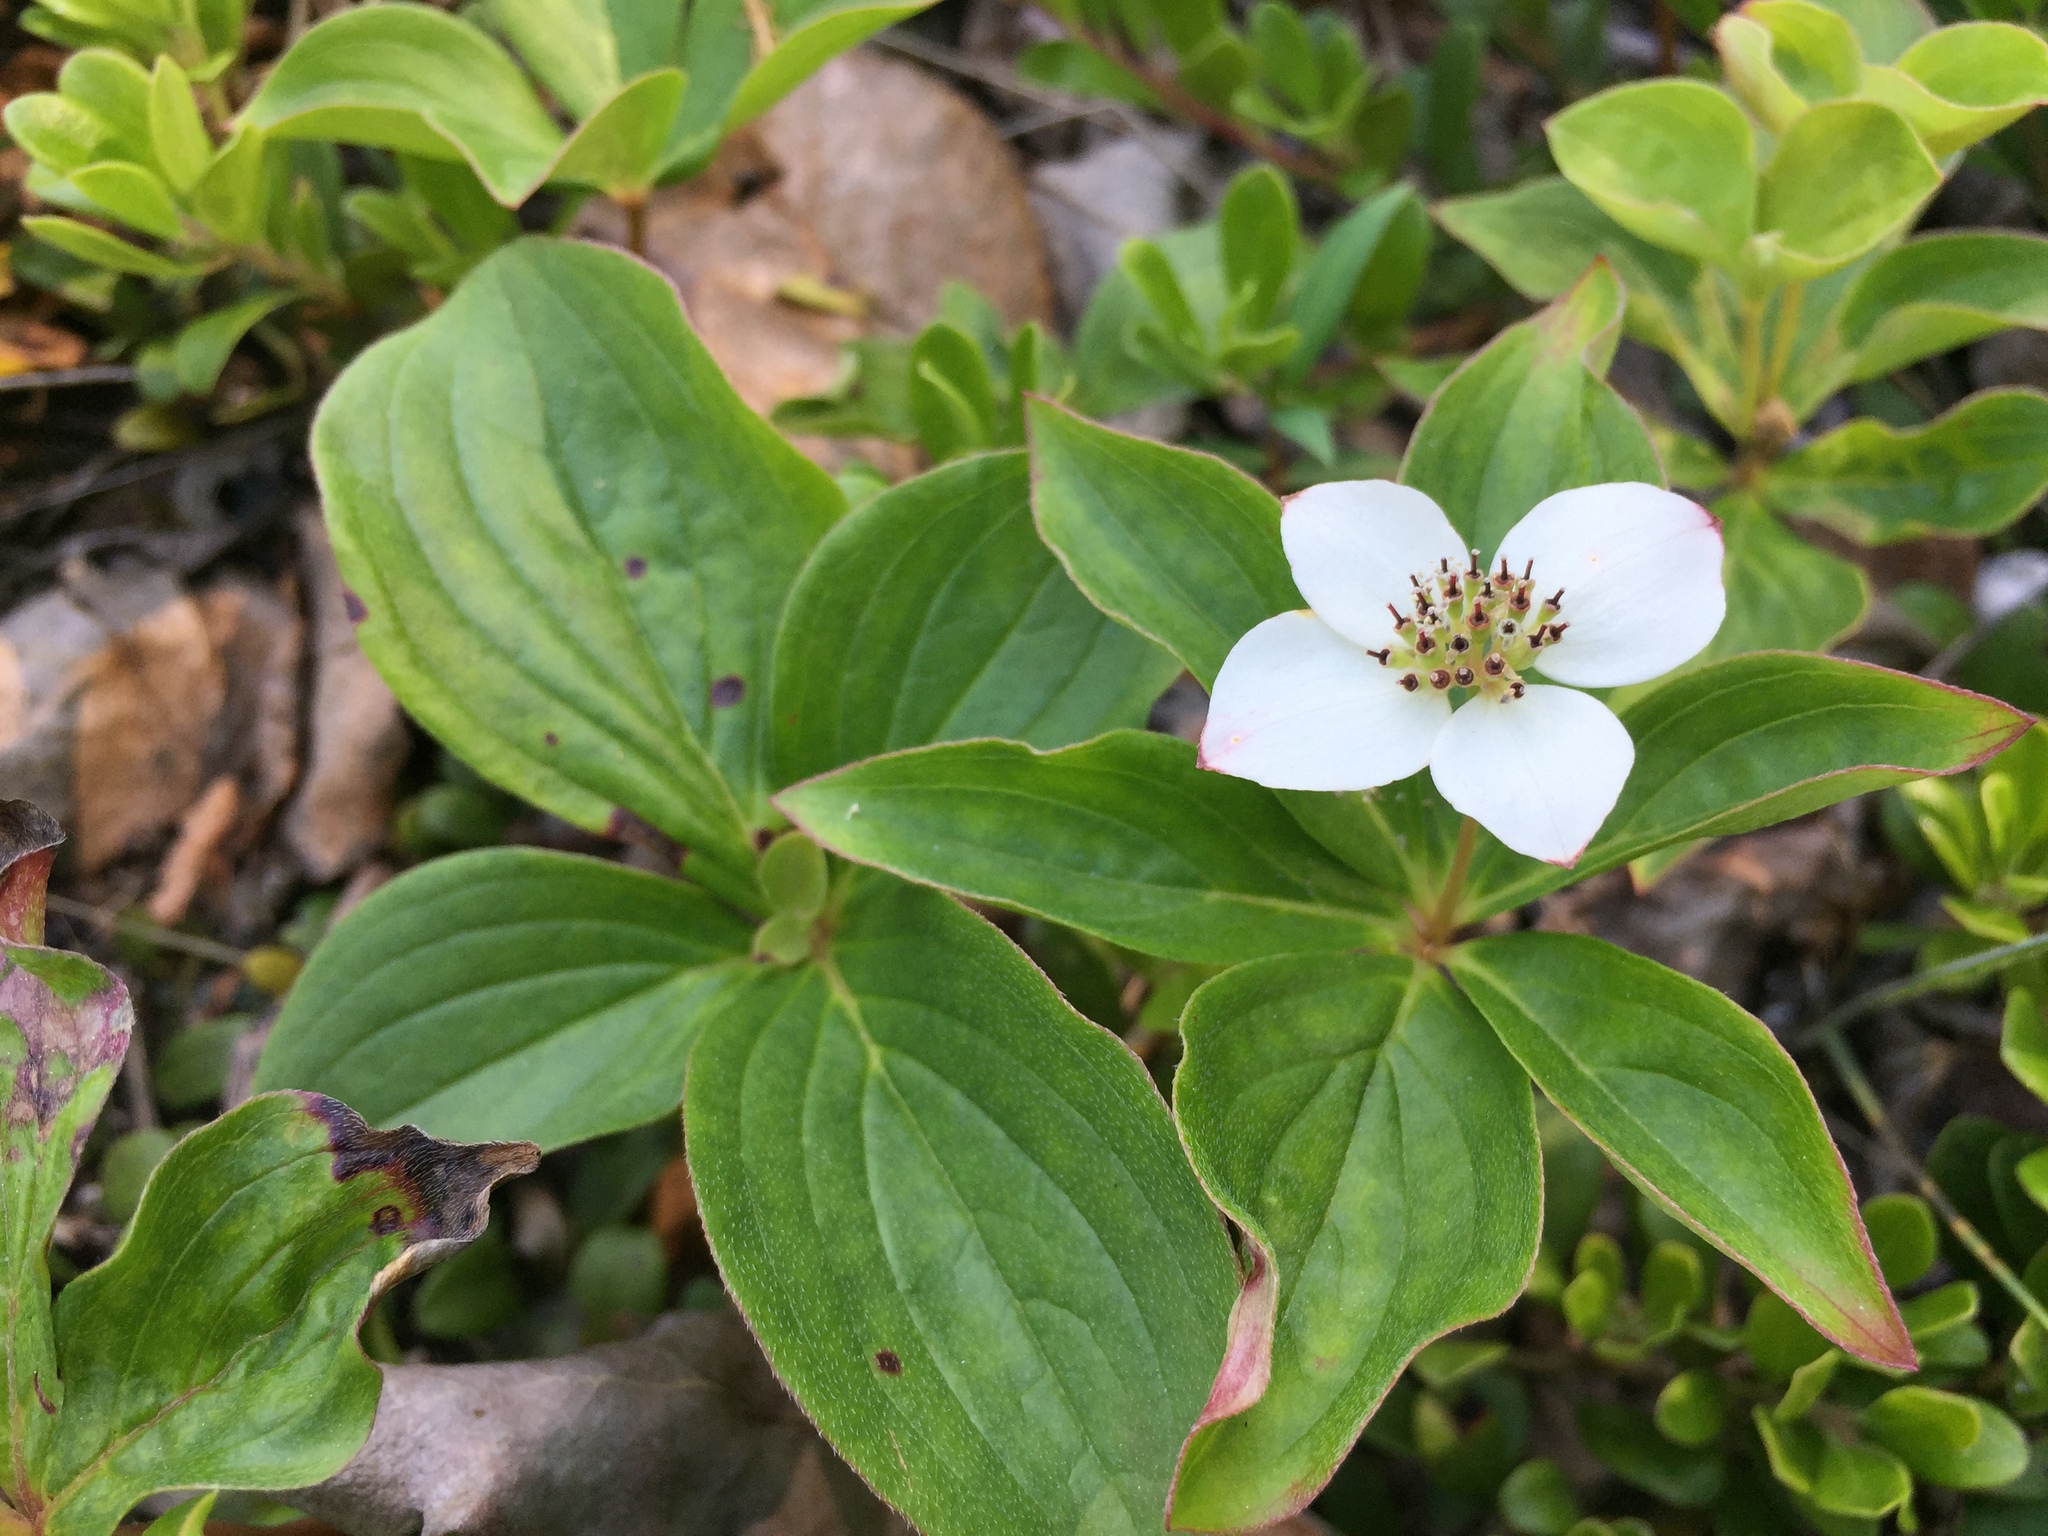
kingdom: Plantae
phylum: Tracheophyta
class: Magnoliopsida
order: Cornales
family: Cornaceae
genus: Cornus
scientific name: Cornus canadensis
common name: Creeping dogwood
